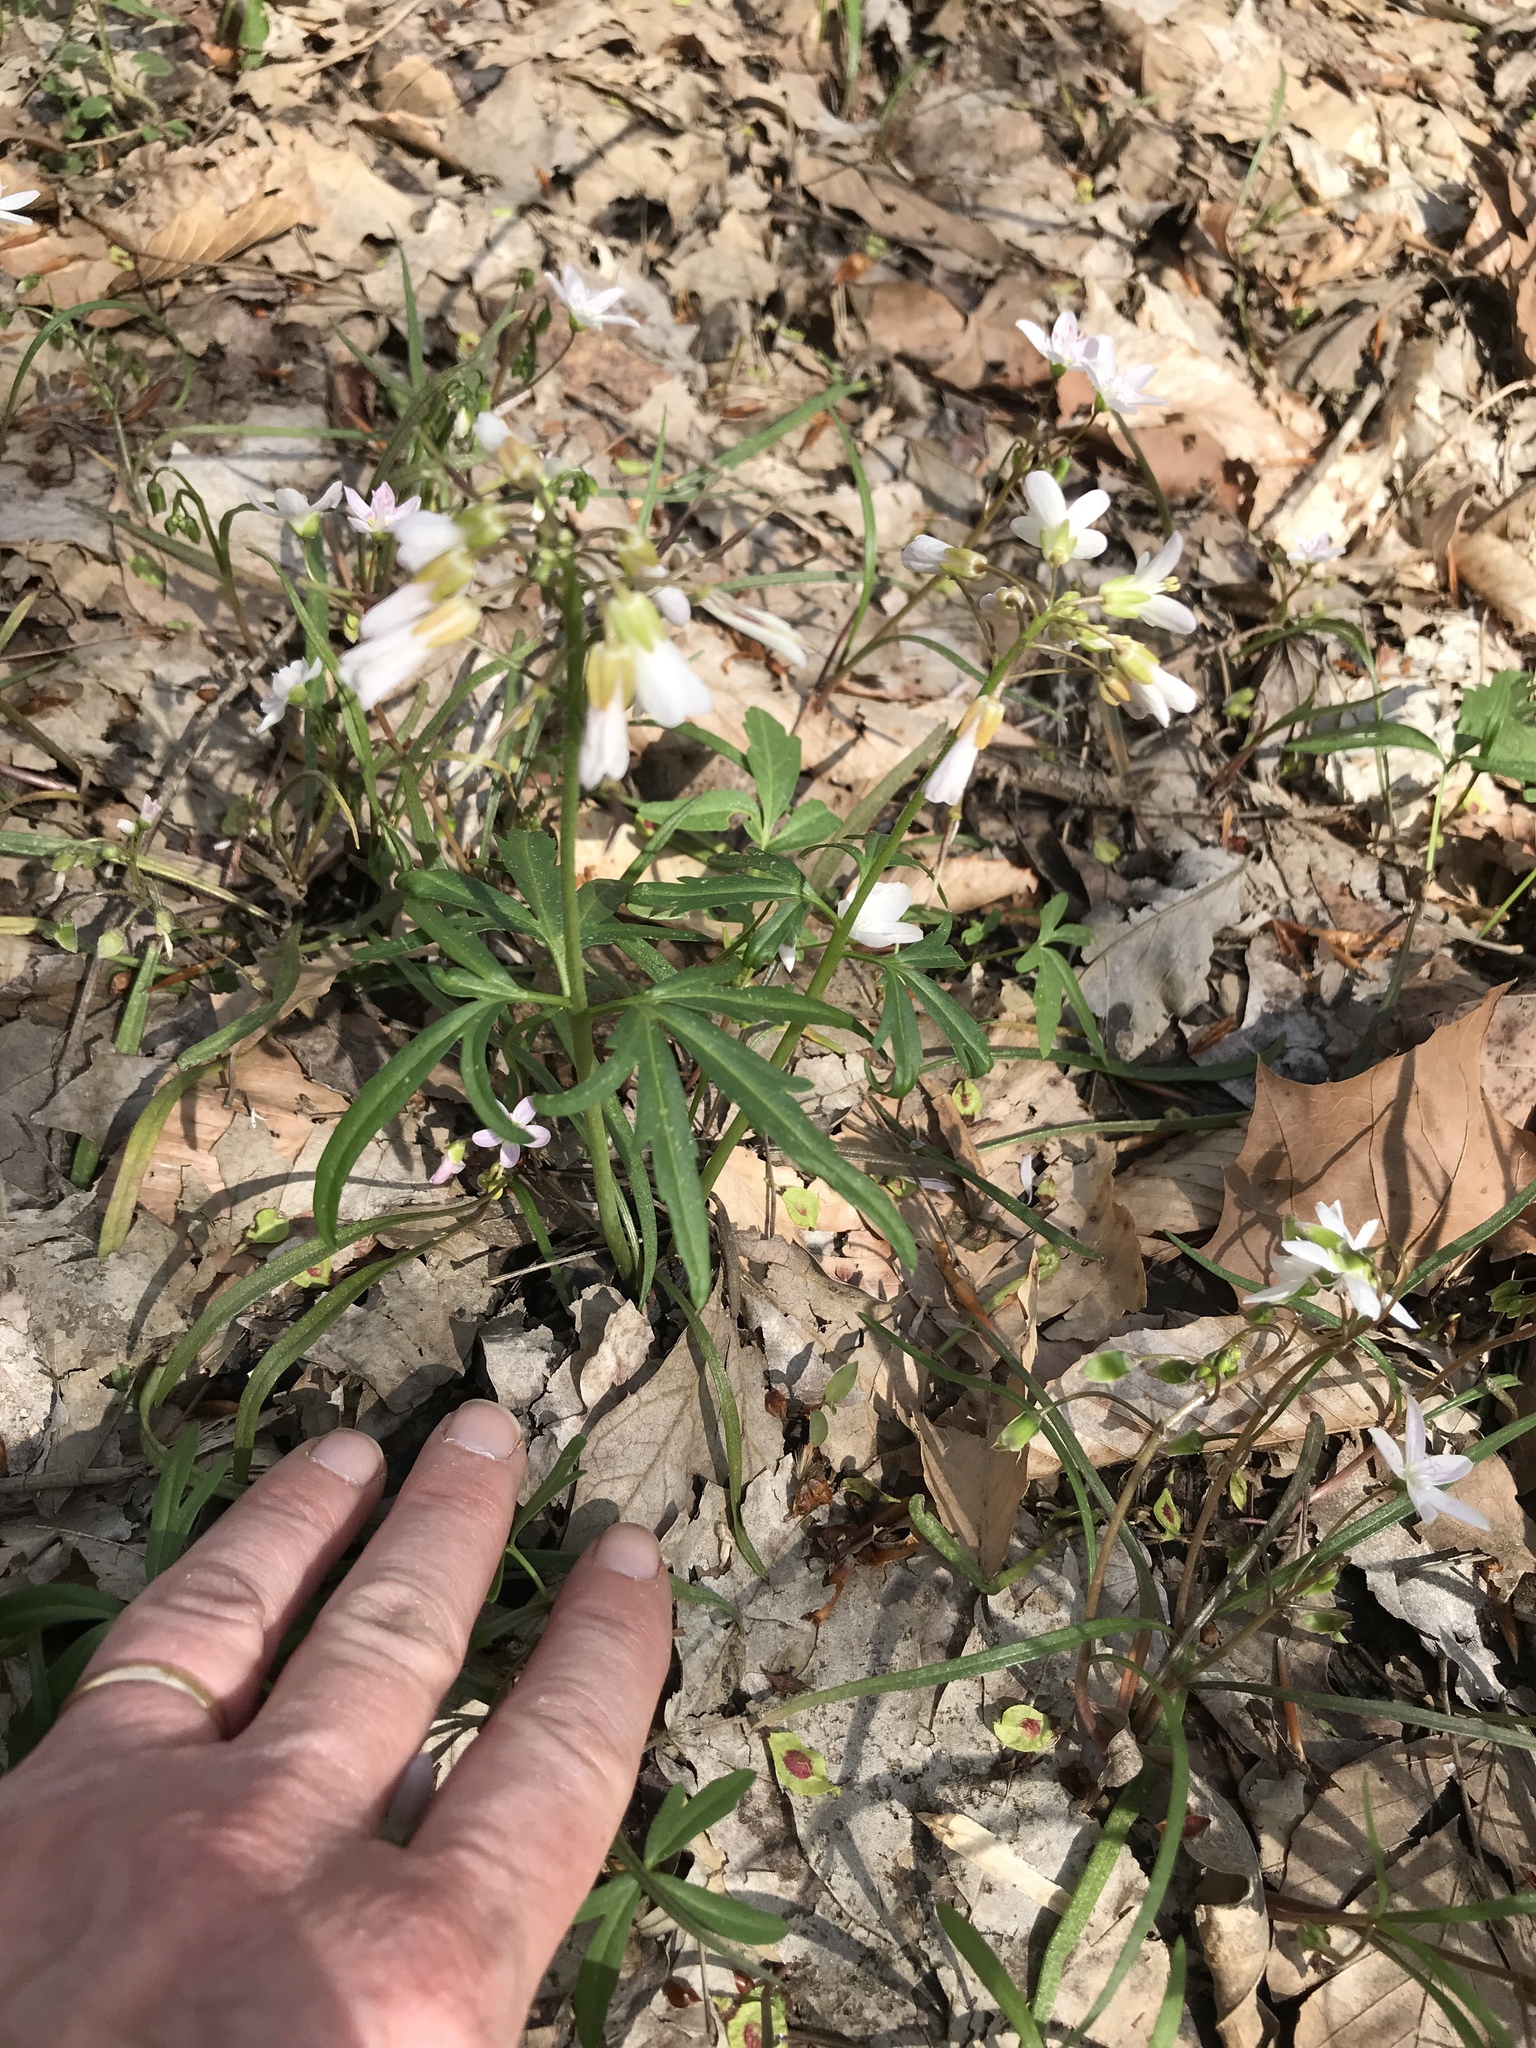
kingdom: Plantae
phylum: Tracheophyta
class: Magnoliopsida
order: Brassicales
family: Brassicaceae
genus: Cardamine
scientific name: Cardamine concatenata
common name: Cut-leaf toothcup
